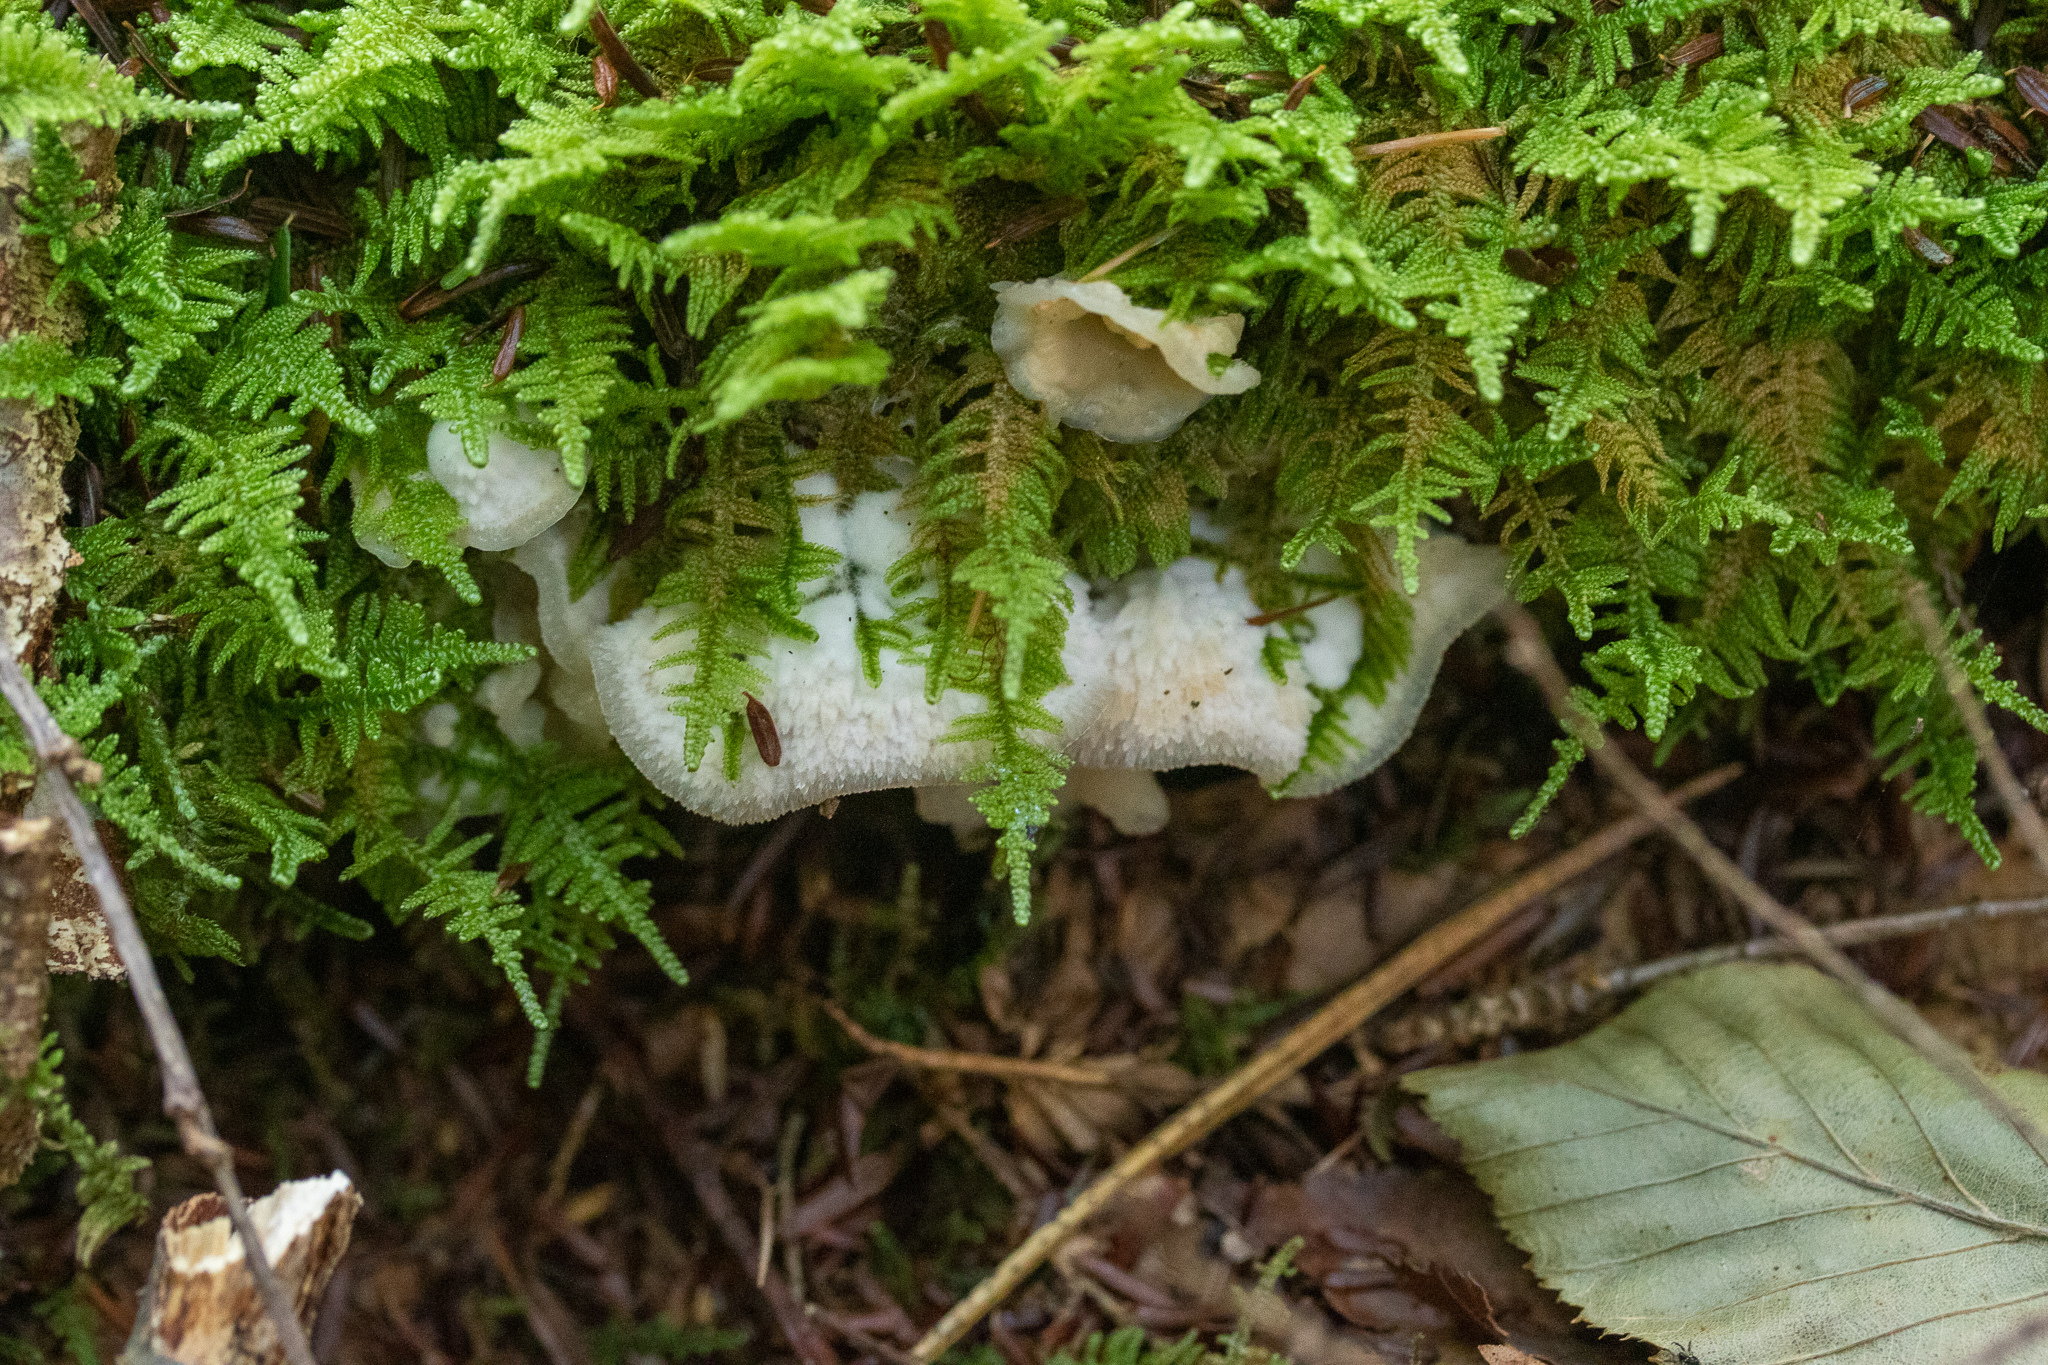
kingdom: Fungi
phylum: Basidiomycota
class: Agaricomycetes
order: Polyporales
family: Meruliaceae
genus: Phlebia
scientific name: Phlebia tremellosa
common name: Jelly rot
